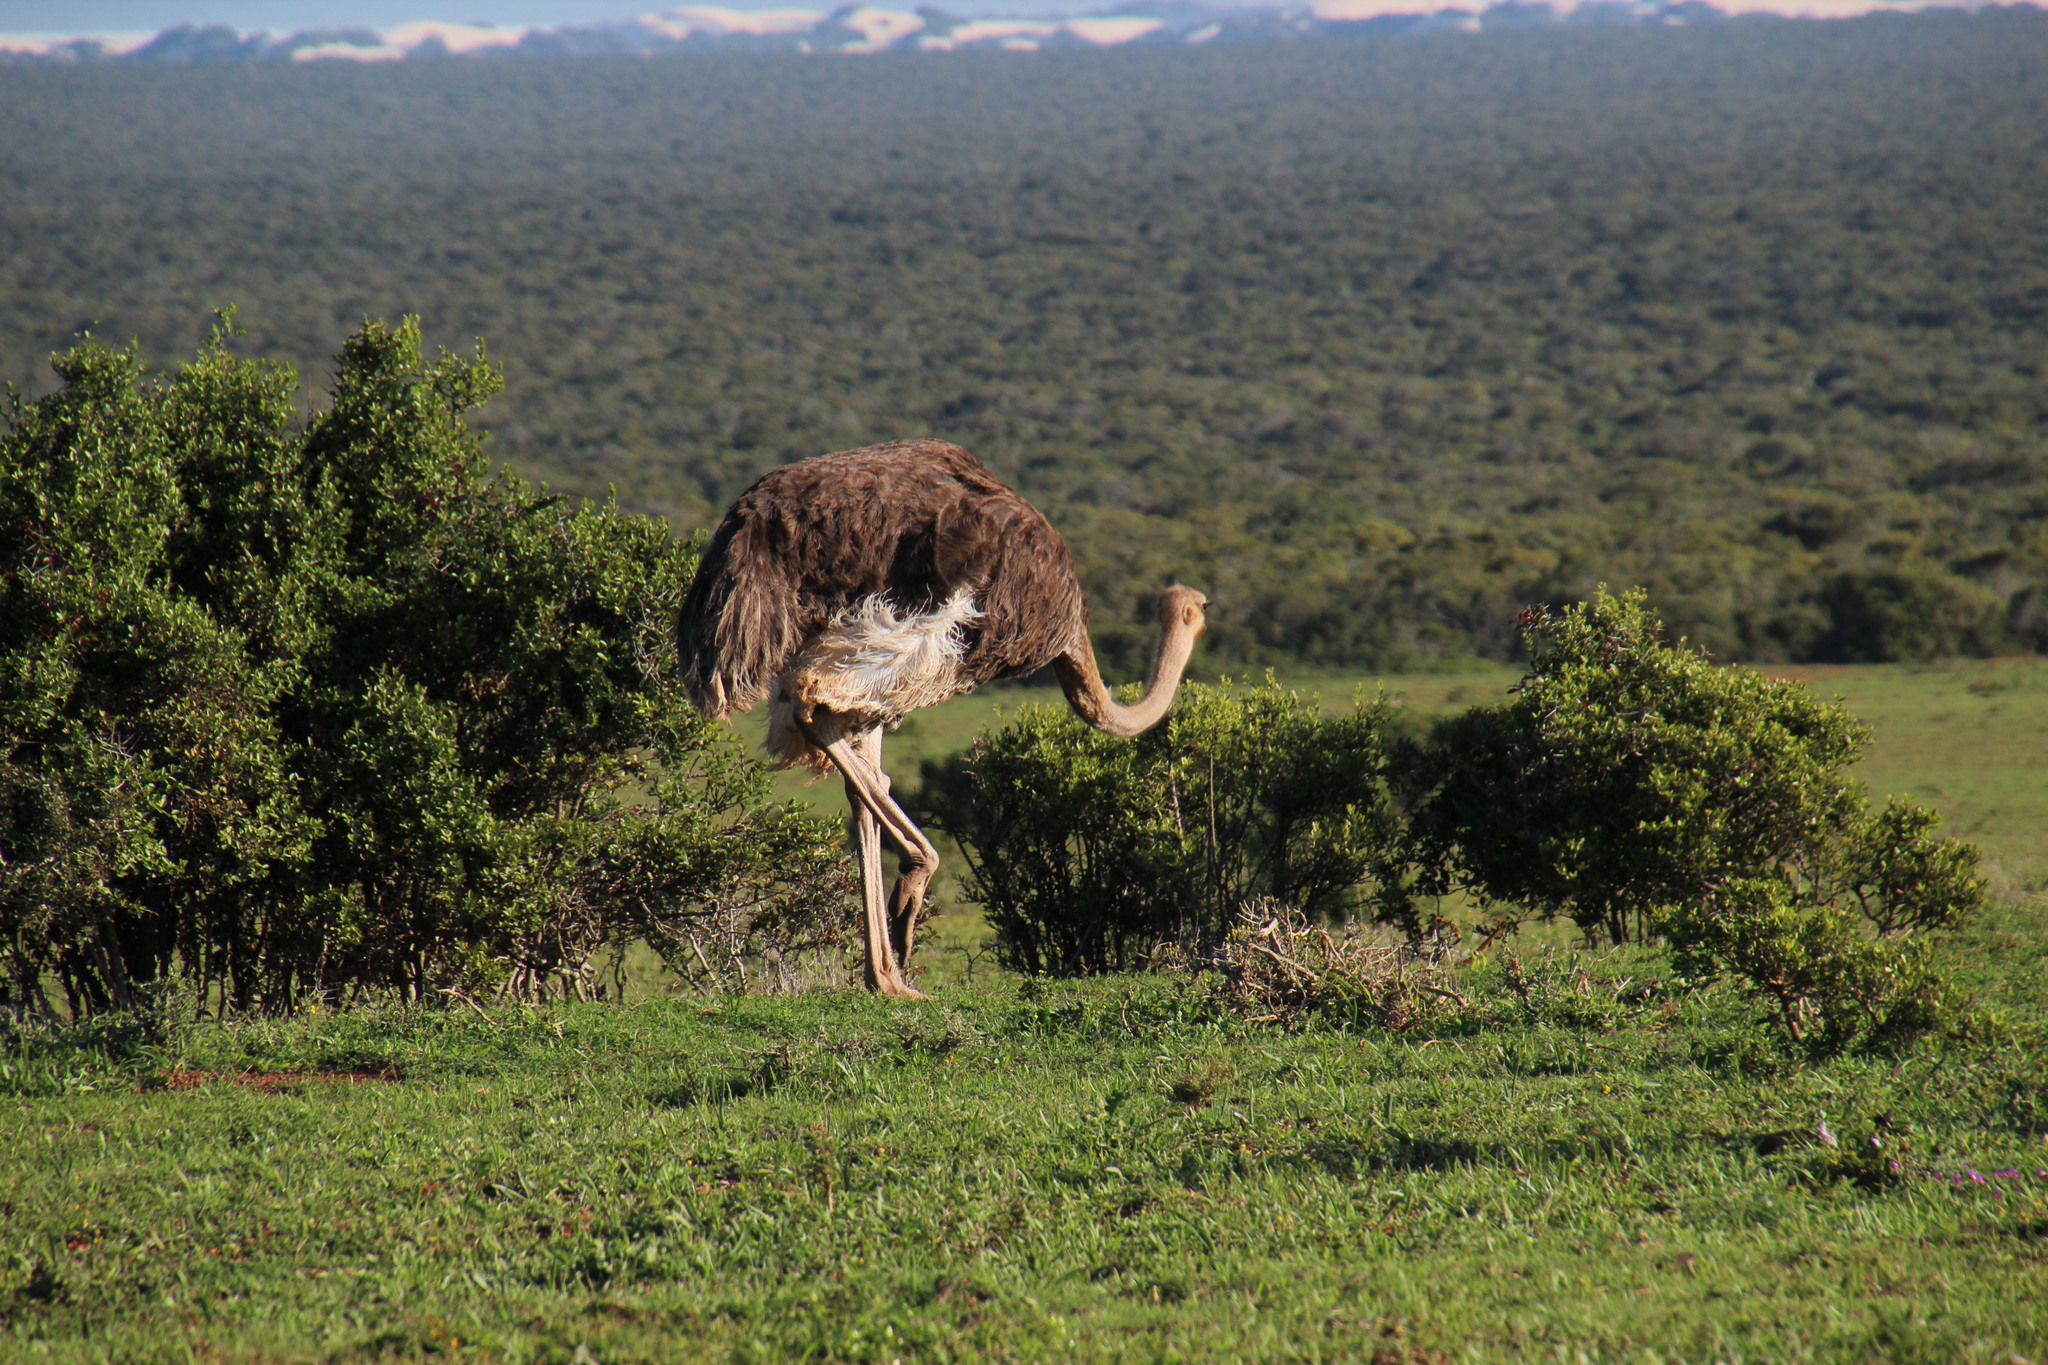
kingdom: Animalia
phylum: Chordata
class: Aves
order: Struthioniformes
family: Struthionidae
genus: Struthio
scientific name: Struthio camelus
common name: Common ostrich
